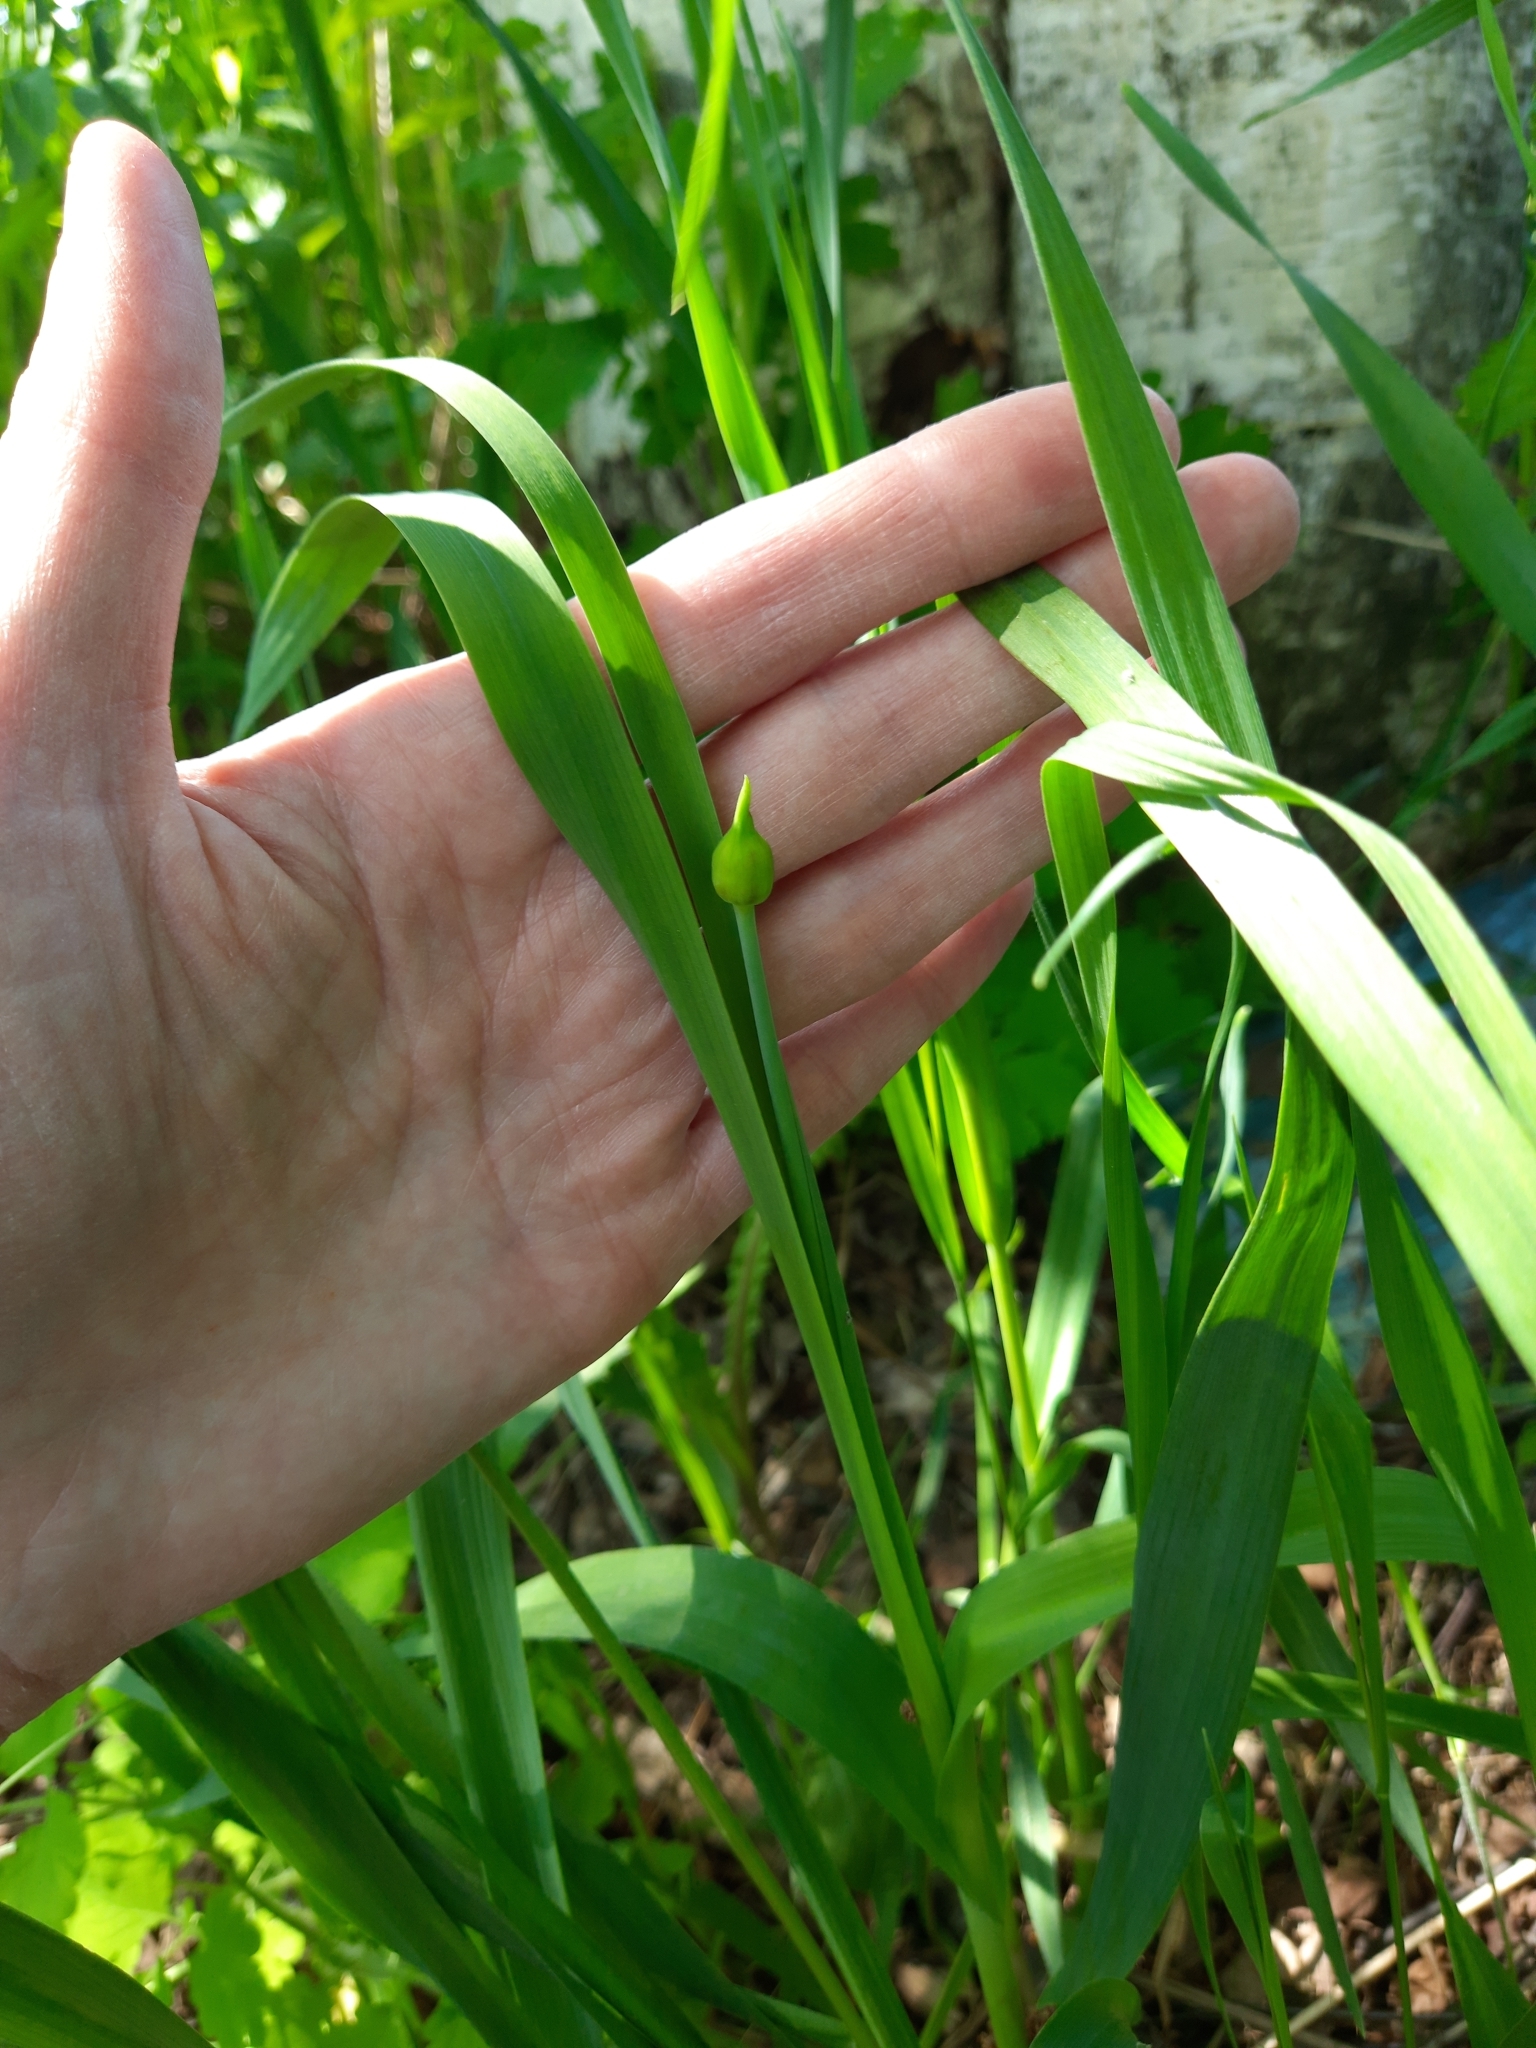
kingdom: Plantae
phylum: Tracheophyta
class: Liliopsida
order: Asparagales
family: Amaryllidaceae
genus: Allium
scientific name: Allium obliquum
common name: Oblique onion
